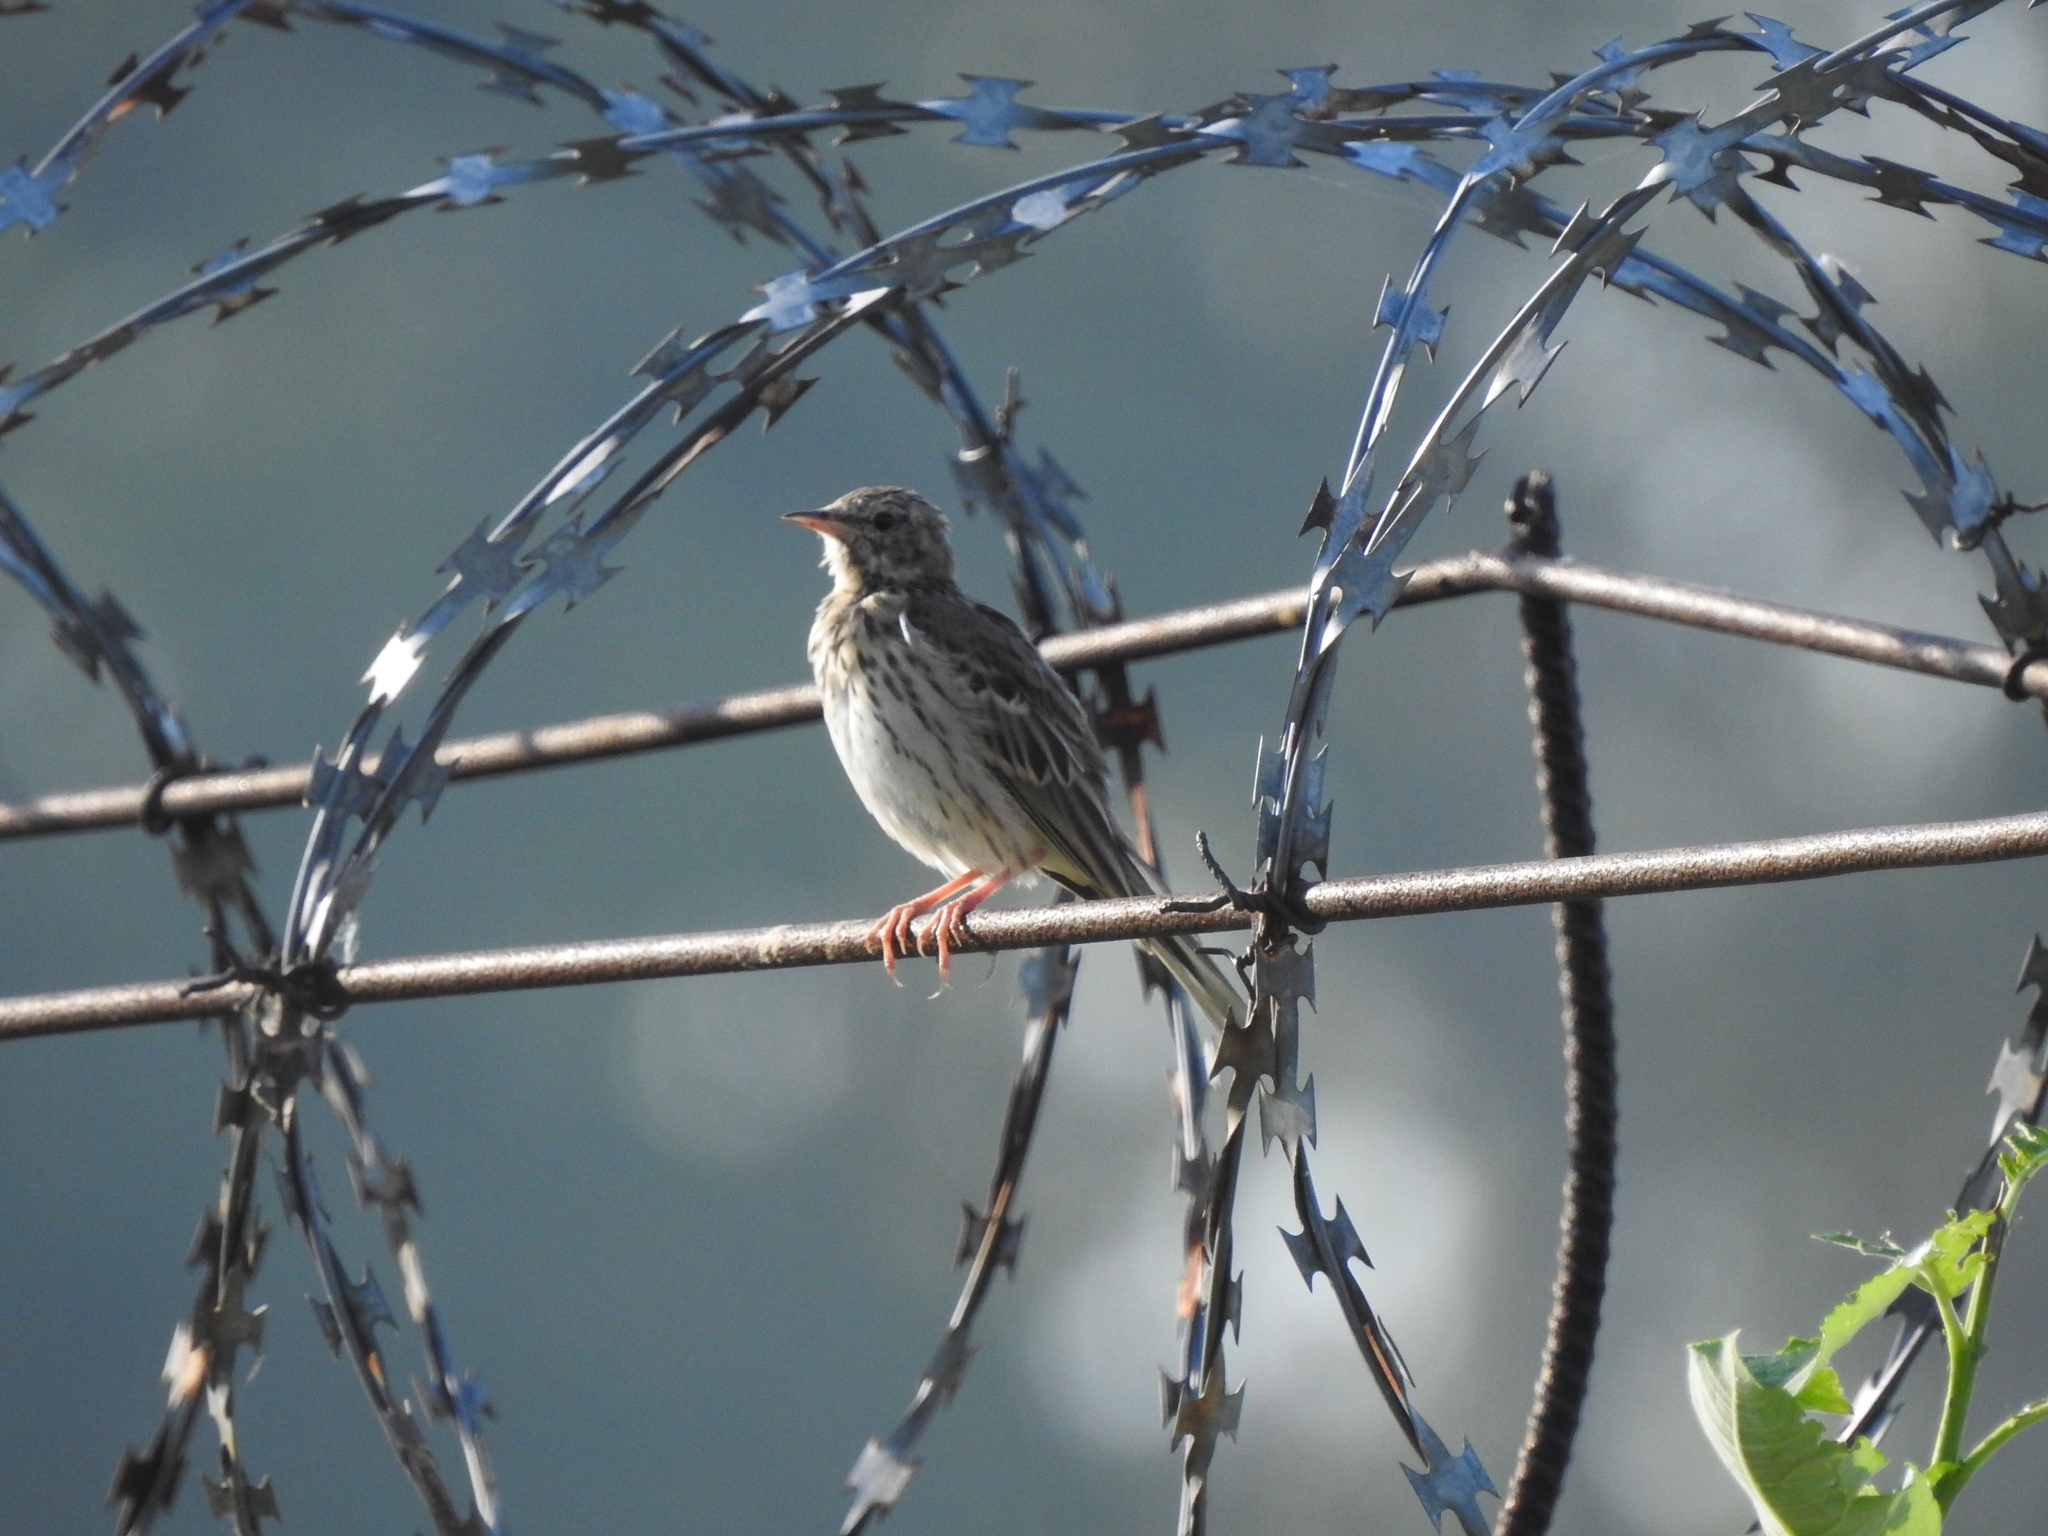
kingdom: Animalia
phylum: Chordata
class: Aves
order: Passeriformes
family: Motacillidae
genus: Anthus
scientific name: Anthus trivialis
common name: Tree pipit
